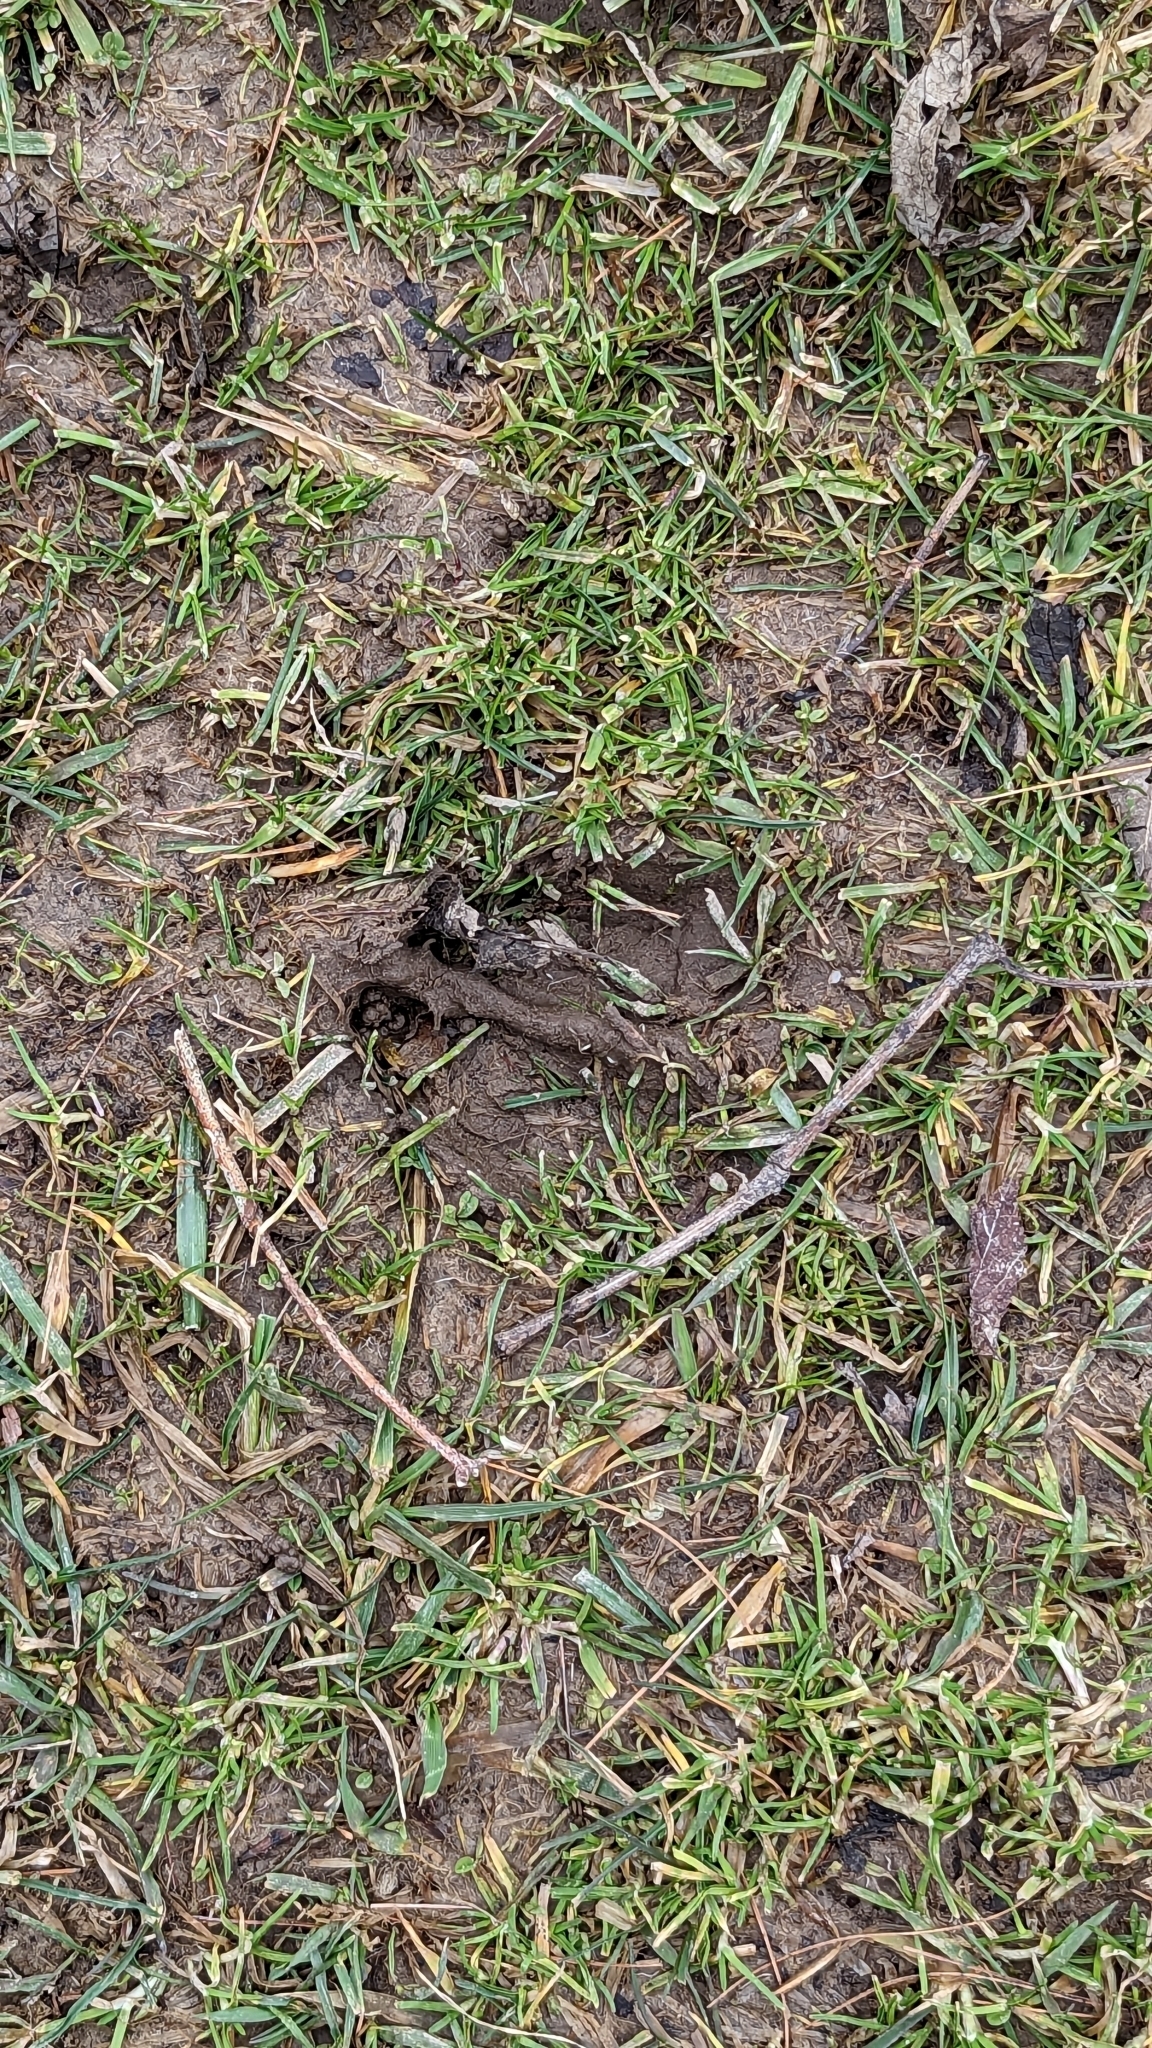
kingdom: Animalia
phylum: Chordata
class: Mammalia
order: Artiodactyla
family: Cervidae
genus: Odocoileus
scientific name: Odocoileus virginianus
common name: White-tailed deer
